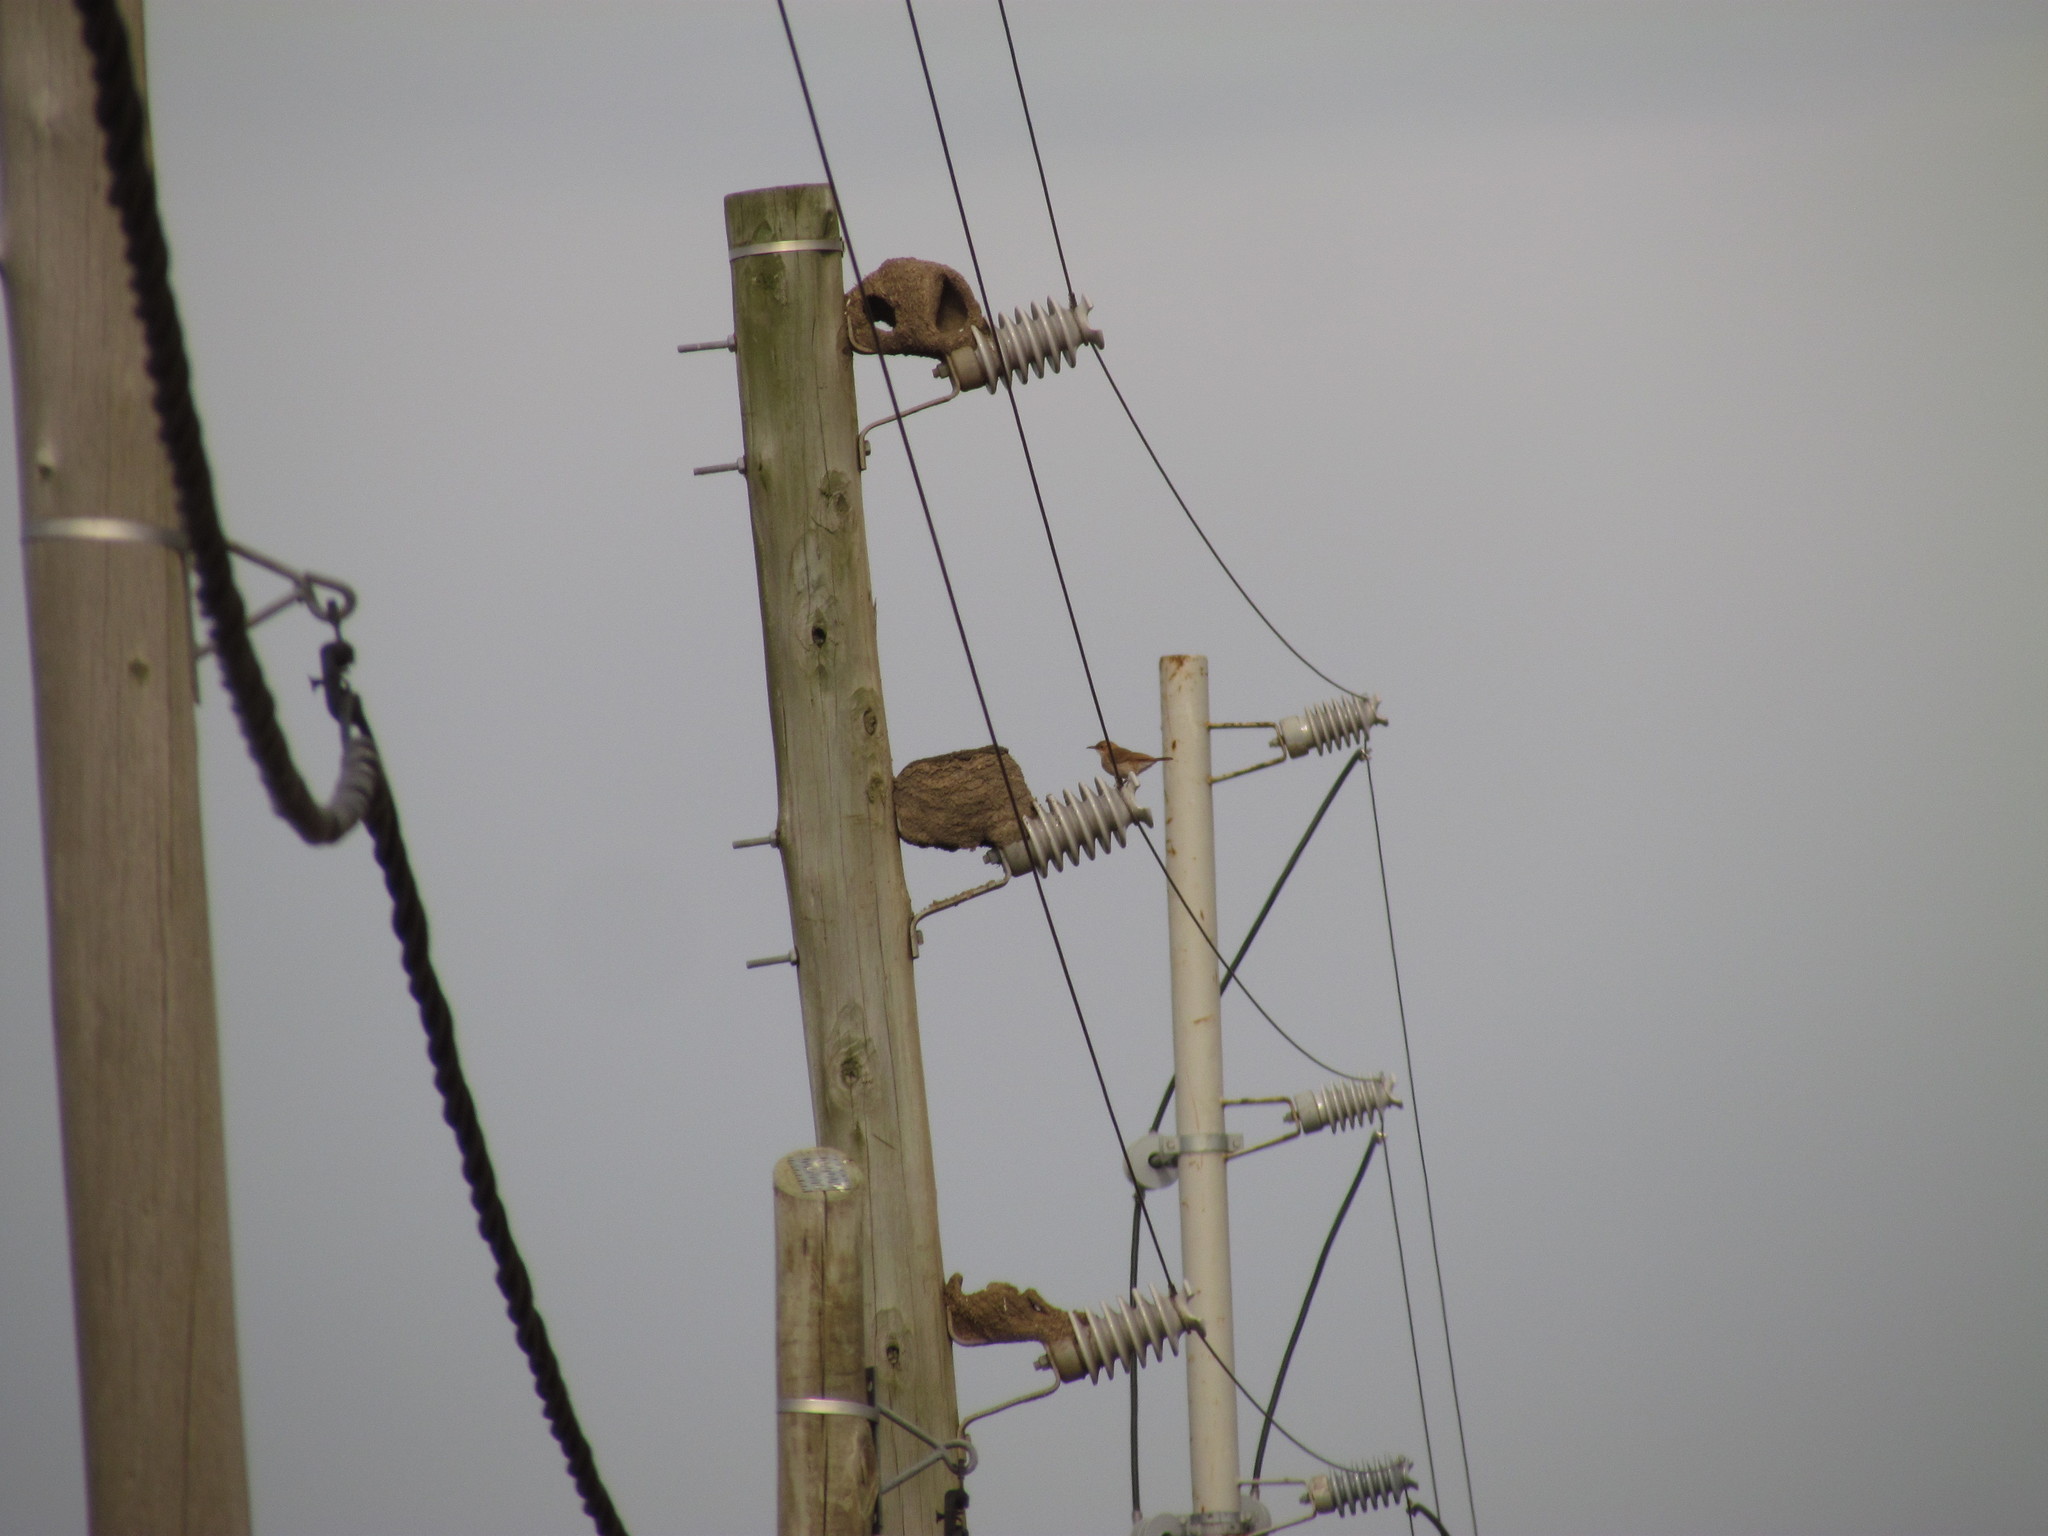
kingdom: Animalia
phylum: Chordata
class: Aves
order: Passeriformes
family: Furnariidae
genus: Furnarius
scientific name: Furnarius rufus
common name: Rufous hornero
